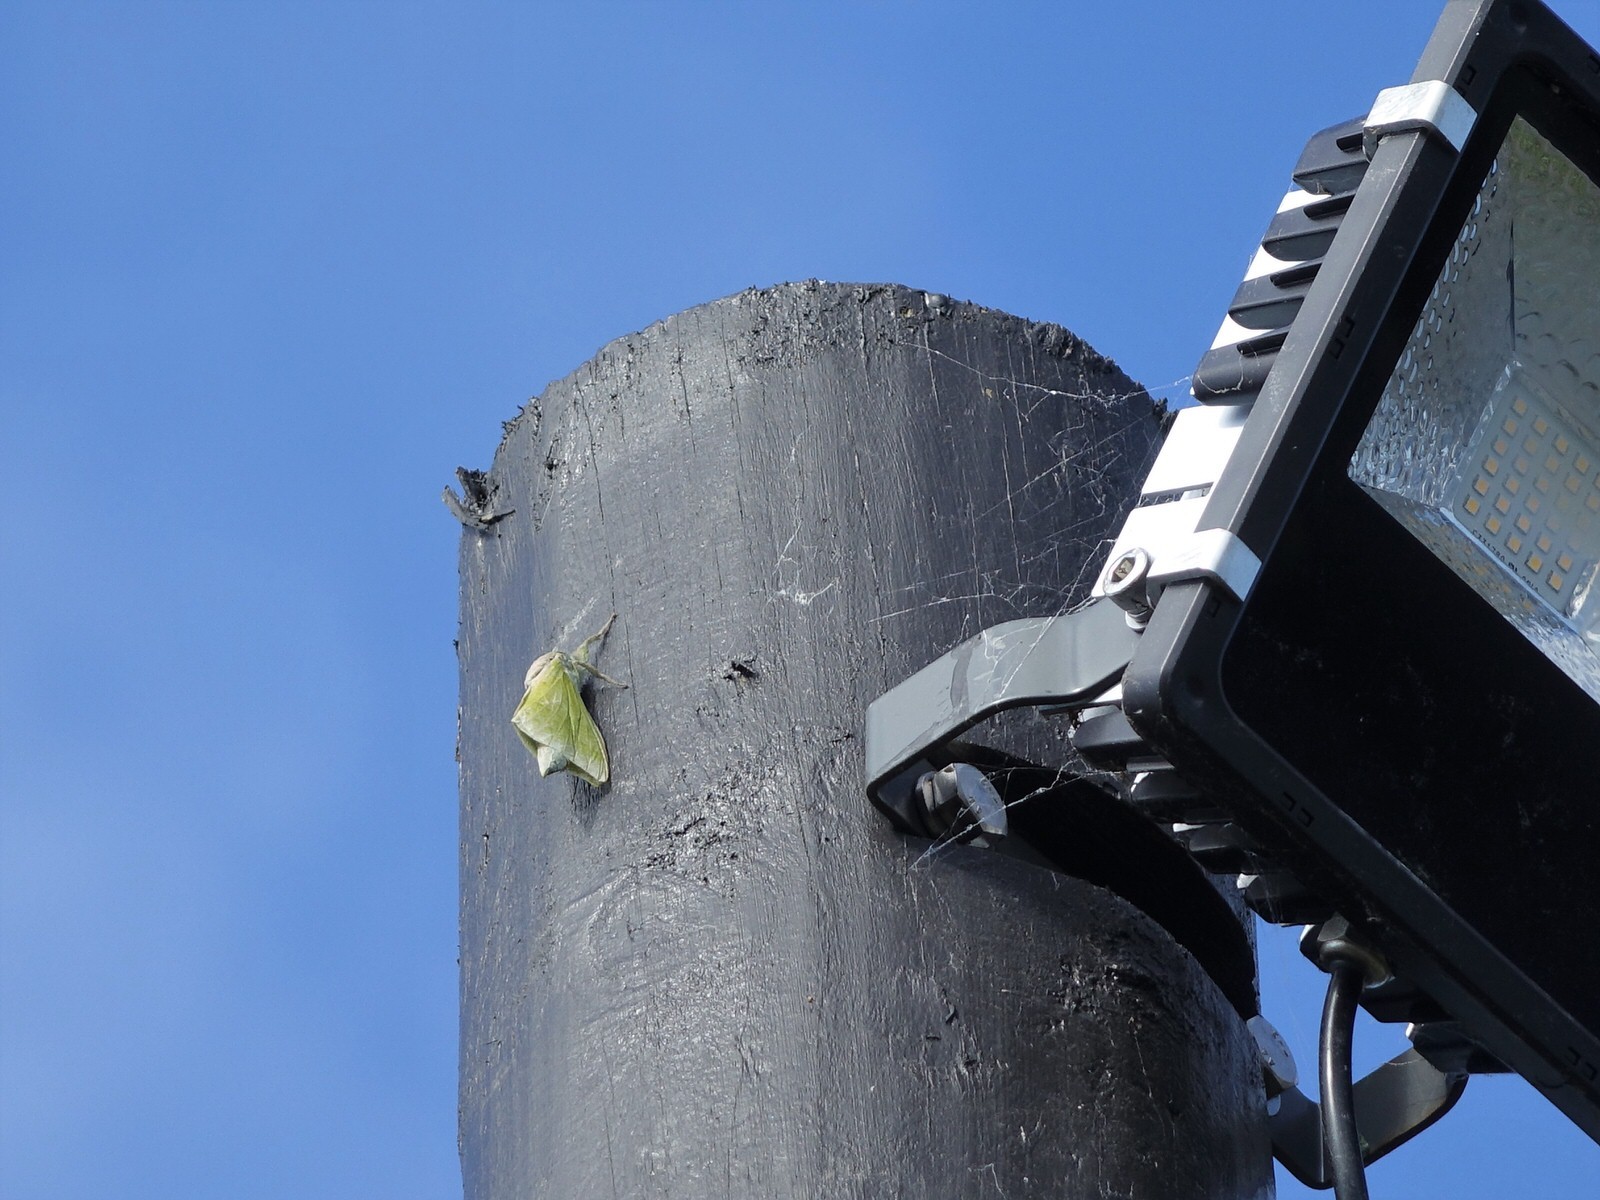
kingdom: Animalia
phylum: Arthropoda
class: Insecta
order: Lepidoptera
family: Hepialidae
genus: Aenetus
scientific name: Aenetus virescens
